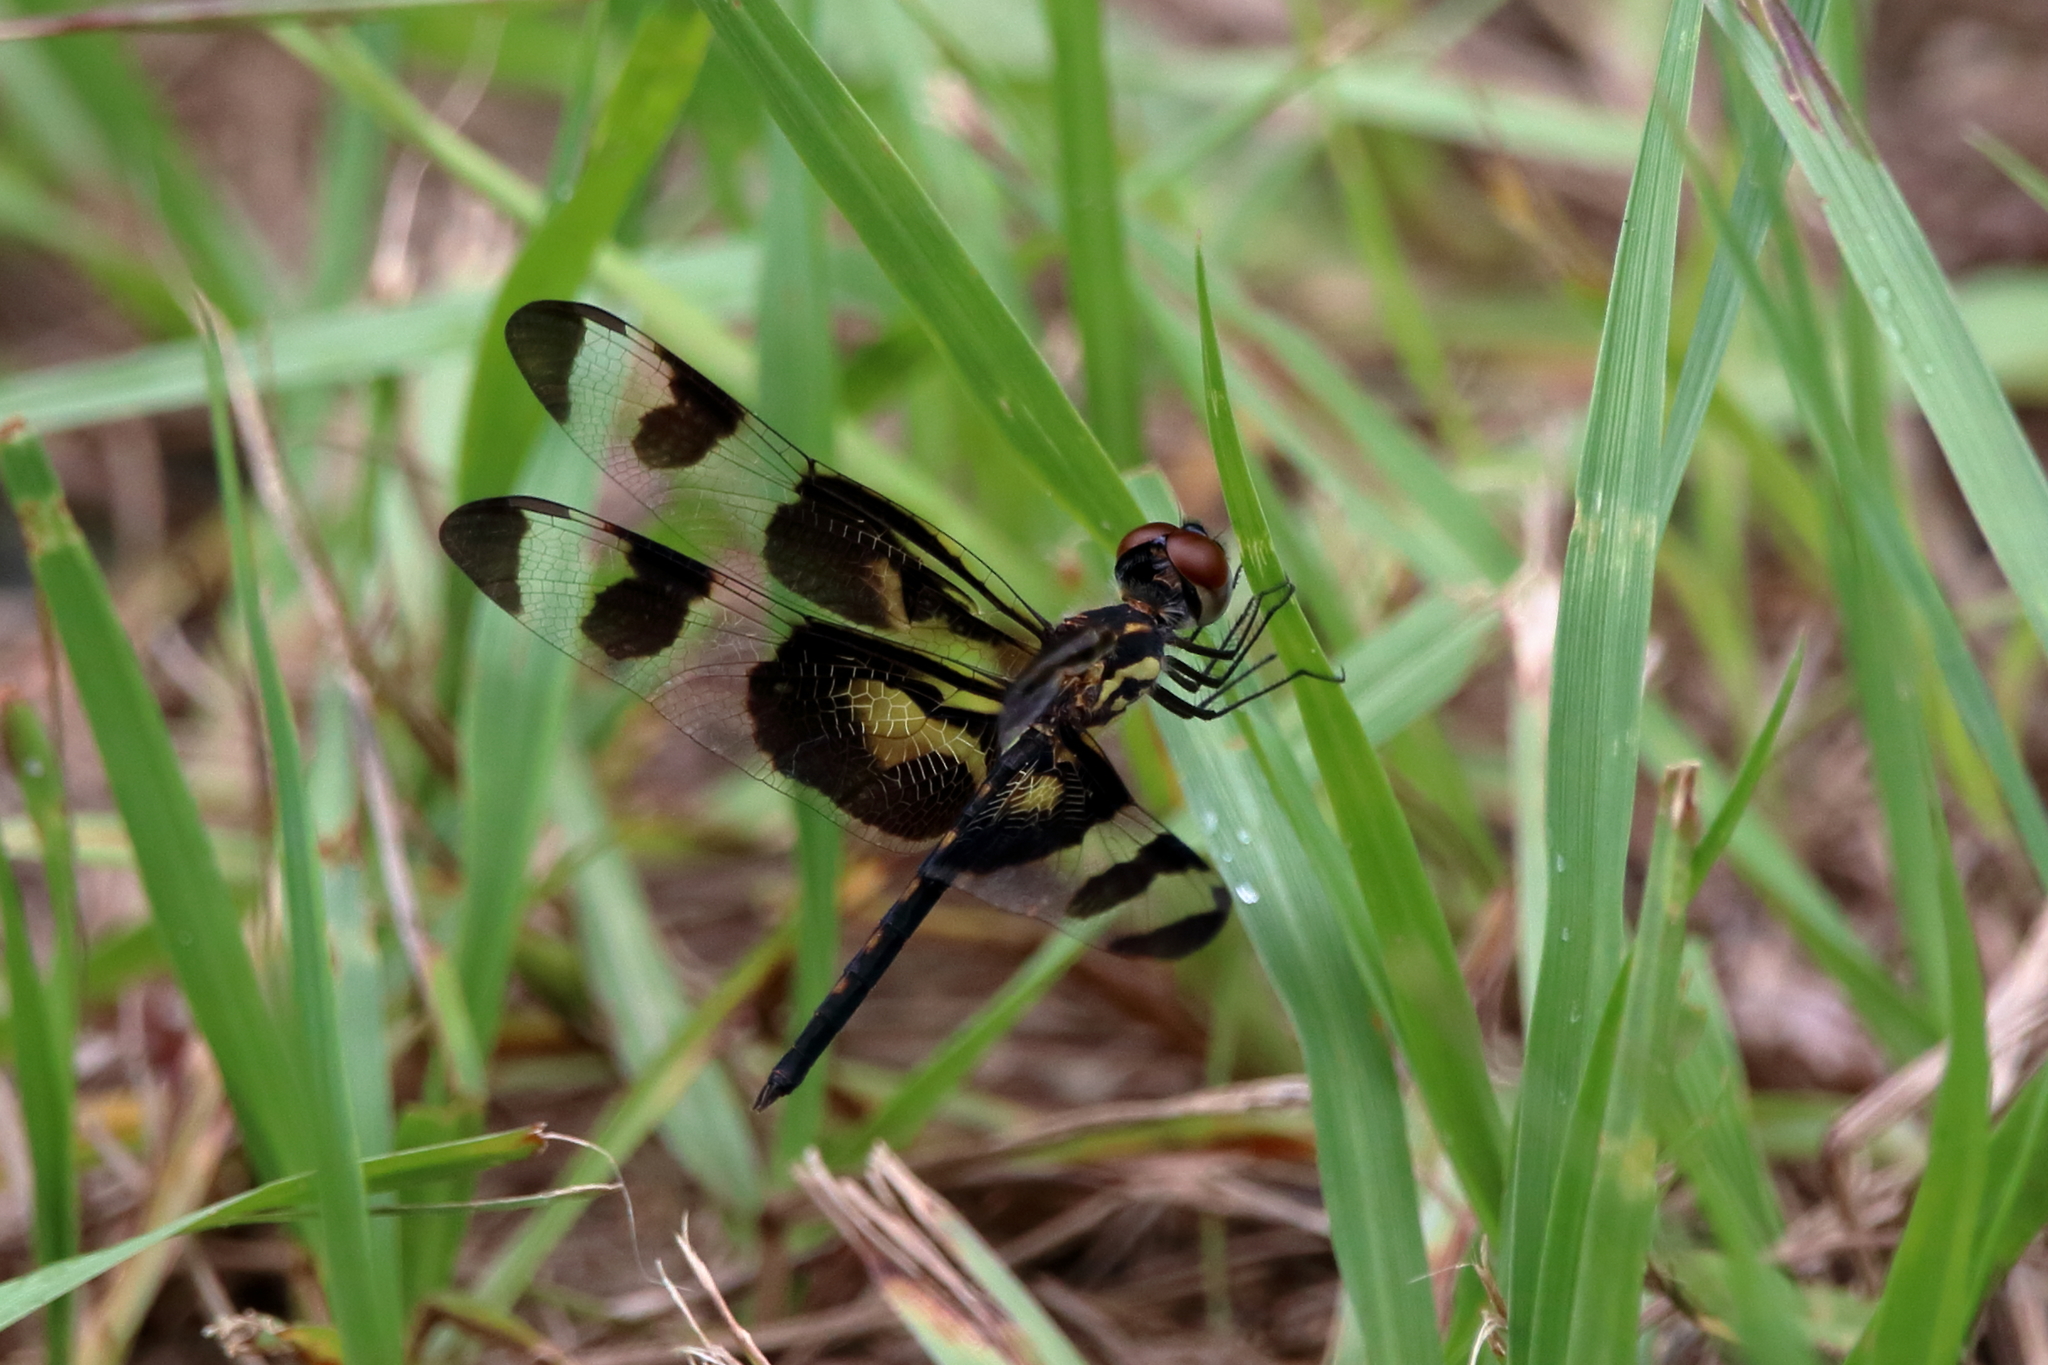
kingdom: Animalia
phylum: Arthropoda
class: Insecta
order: Odonata
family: Libellulidae
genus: Celithemis
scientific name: Celithemis fasciata
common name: Banded pennant
